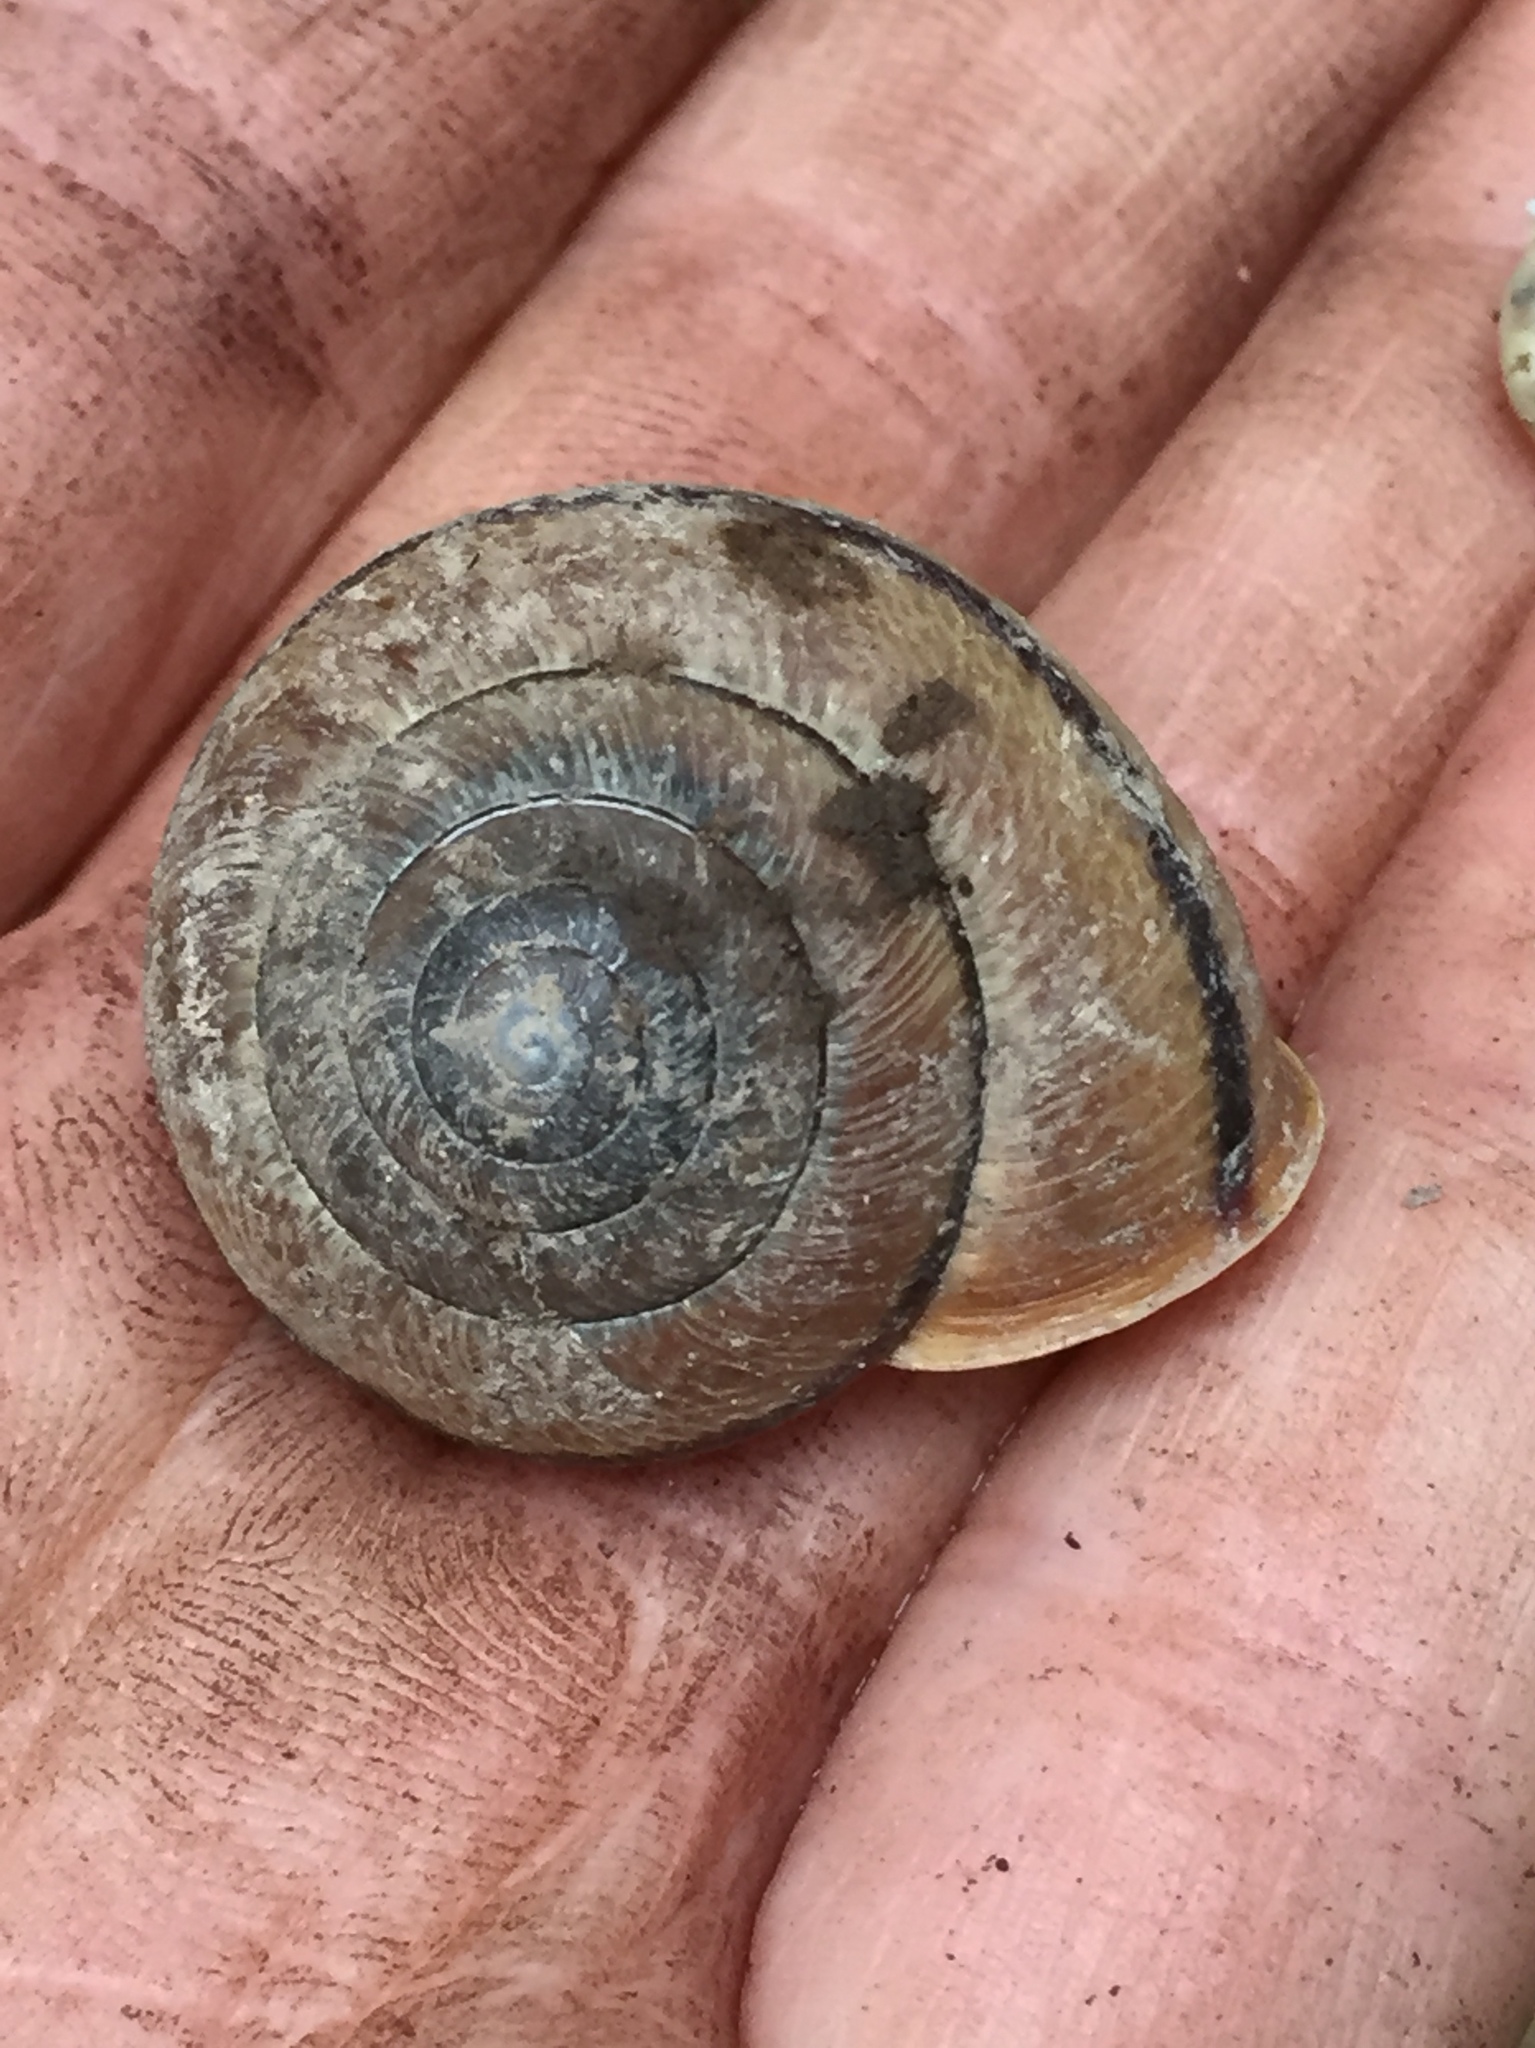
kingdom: Animalia
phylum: Mollusca
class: Gastropoda
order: Stylommatophora
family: Xanthonychidae
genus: Helminthoglypta
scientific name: Helminthoglypta exarata
